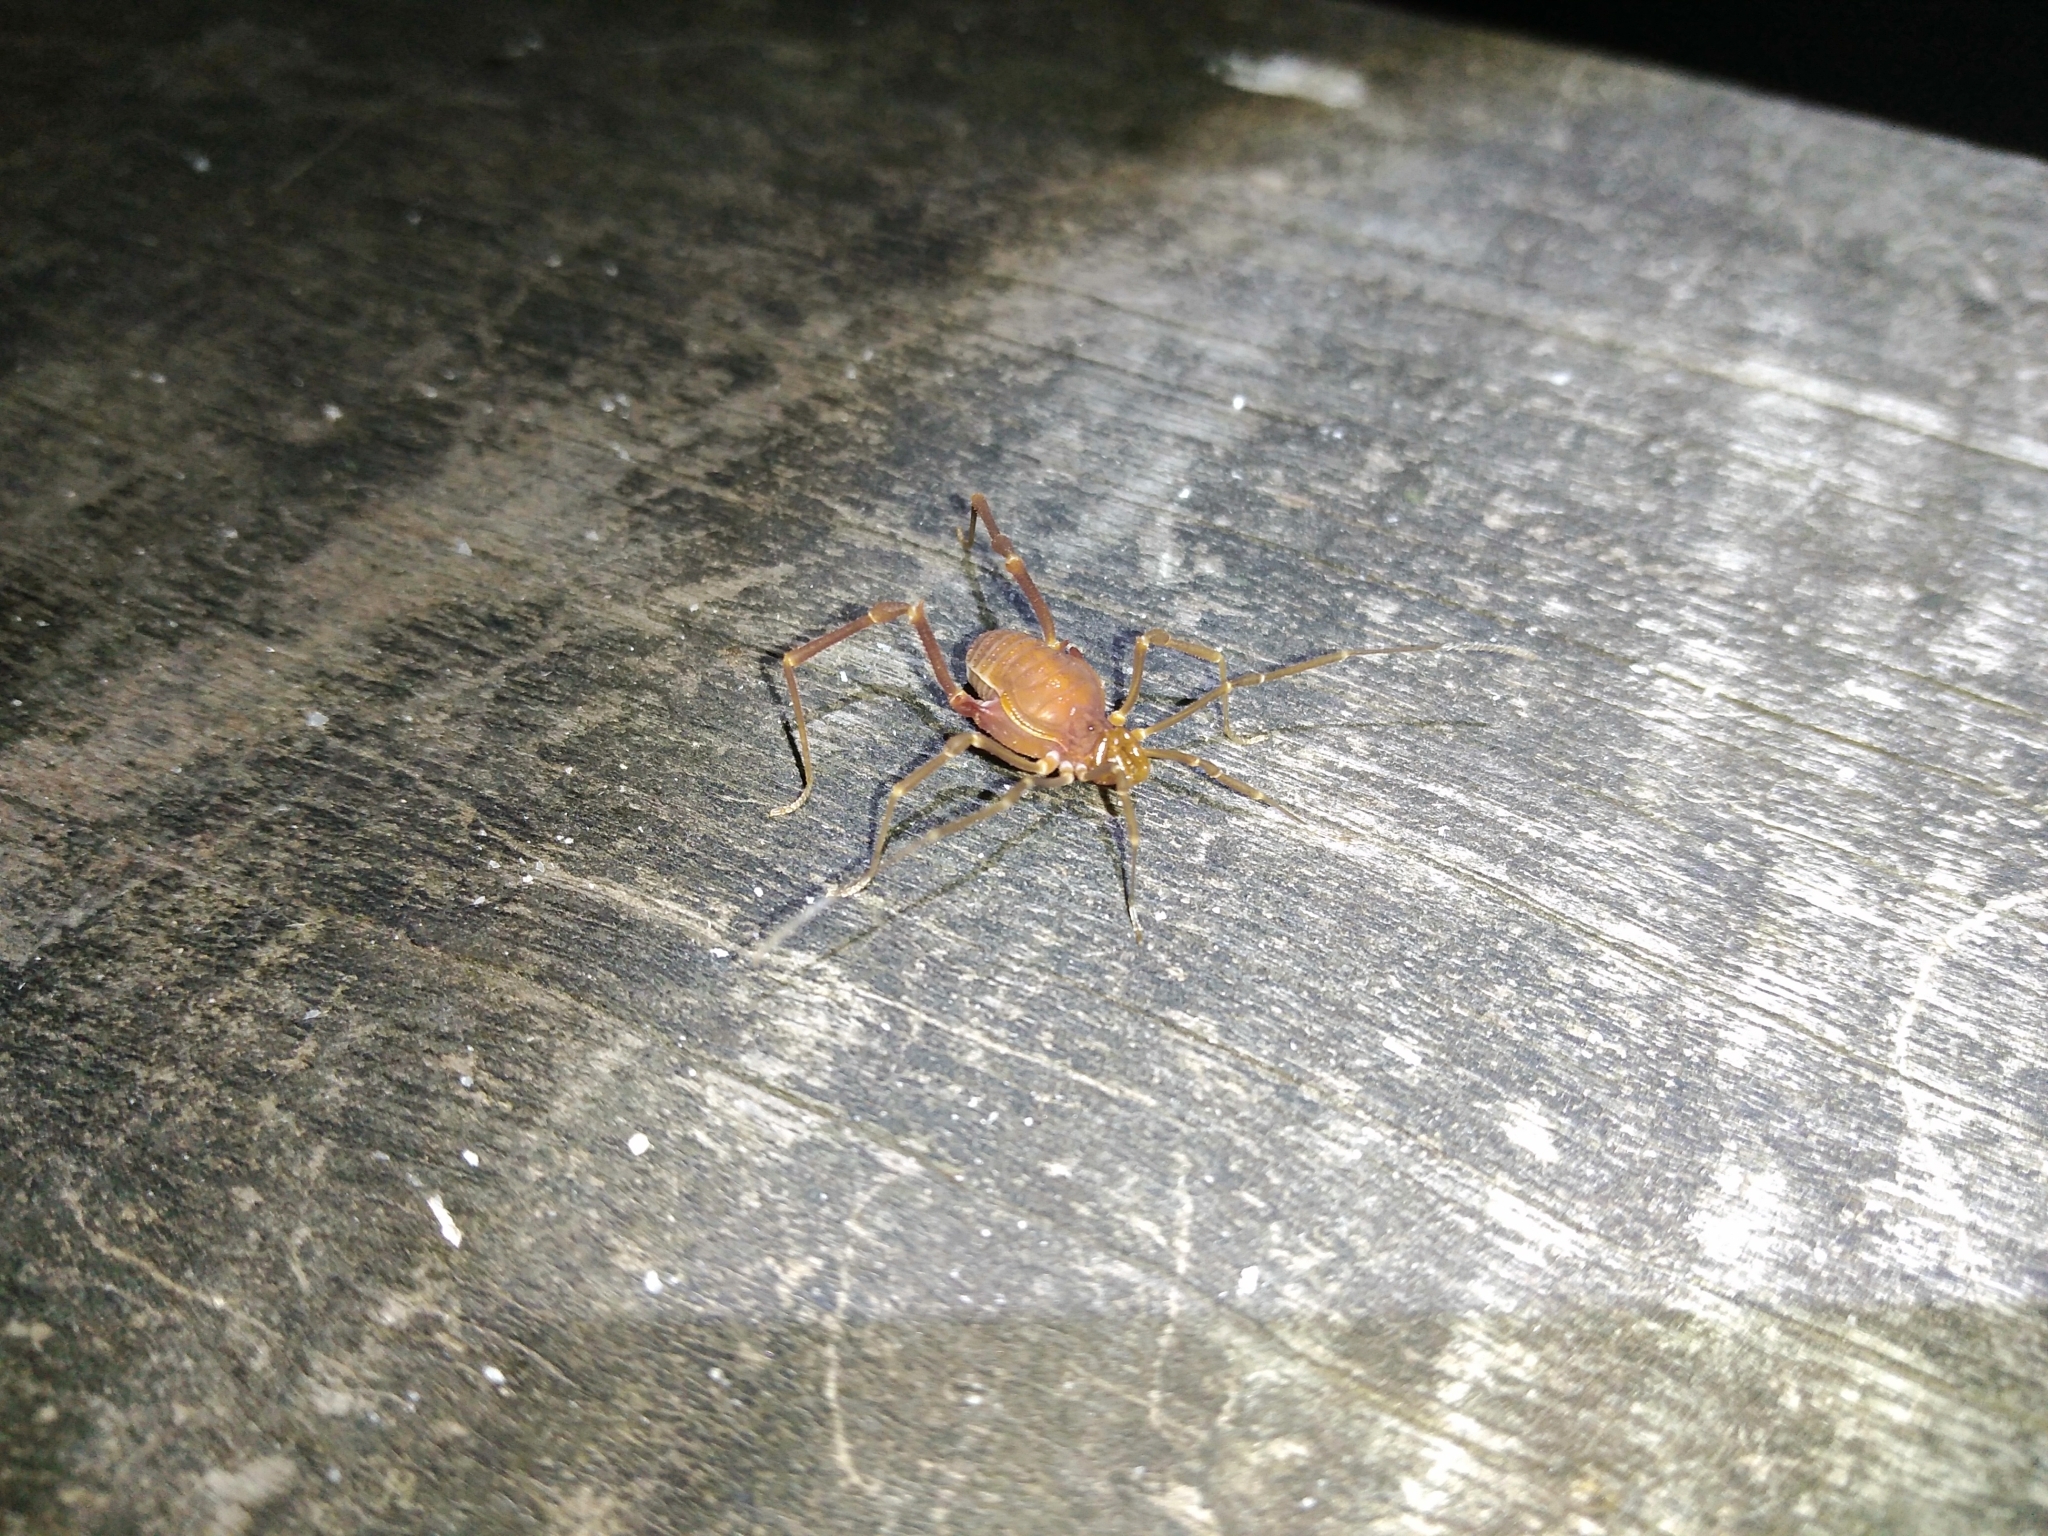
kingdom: Animalia
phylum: Arthropoda
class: Arachnida
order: Opiliones
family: Gonyleptidae
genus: Pachyloides
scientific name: Pachyloides thorellii
